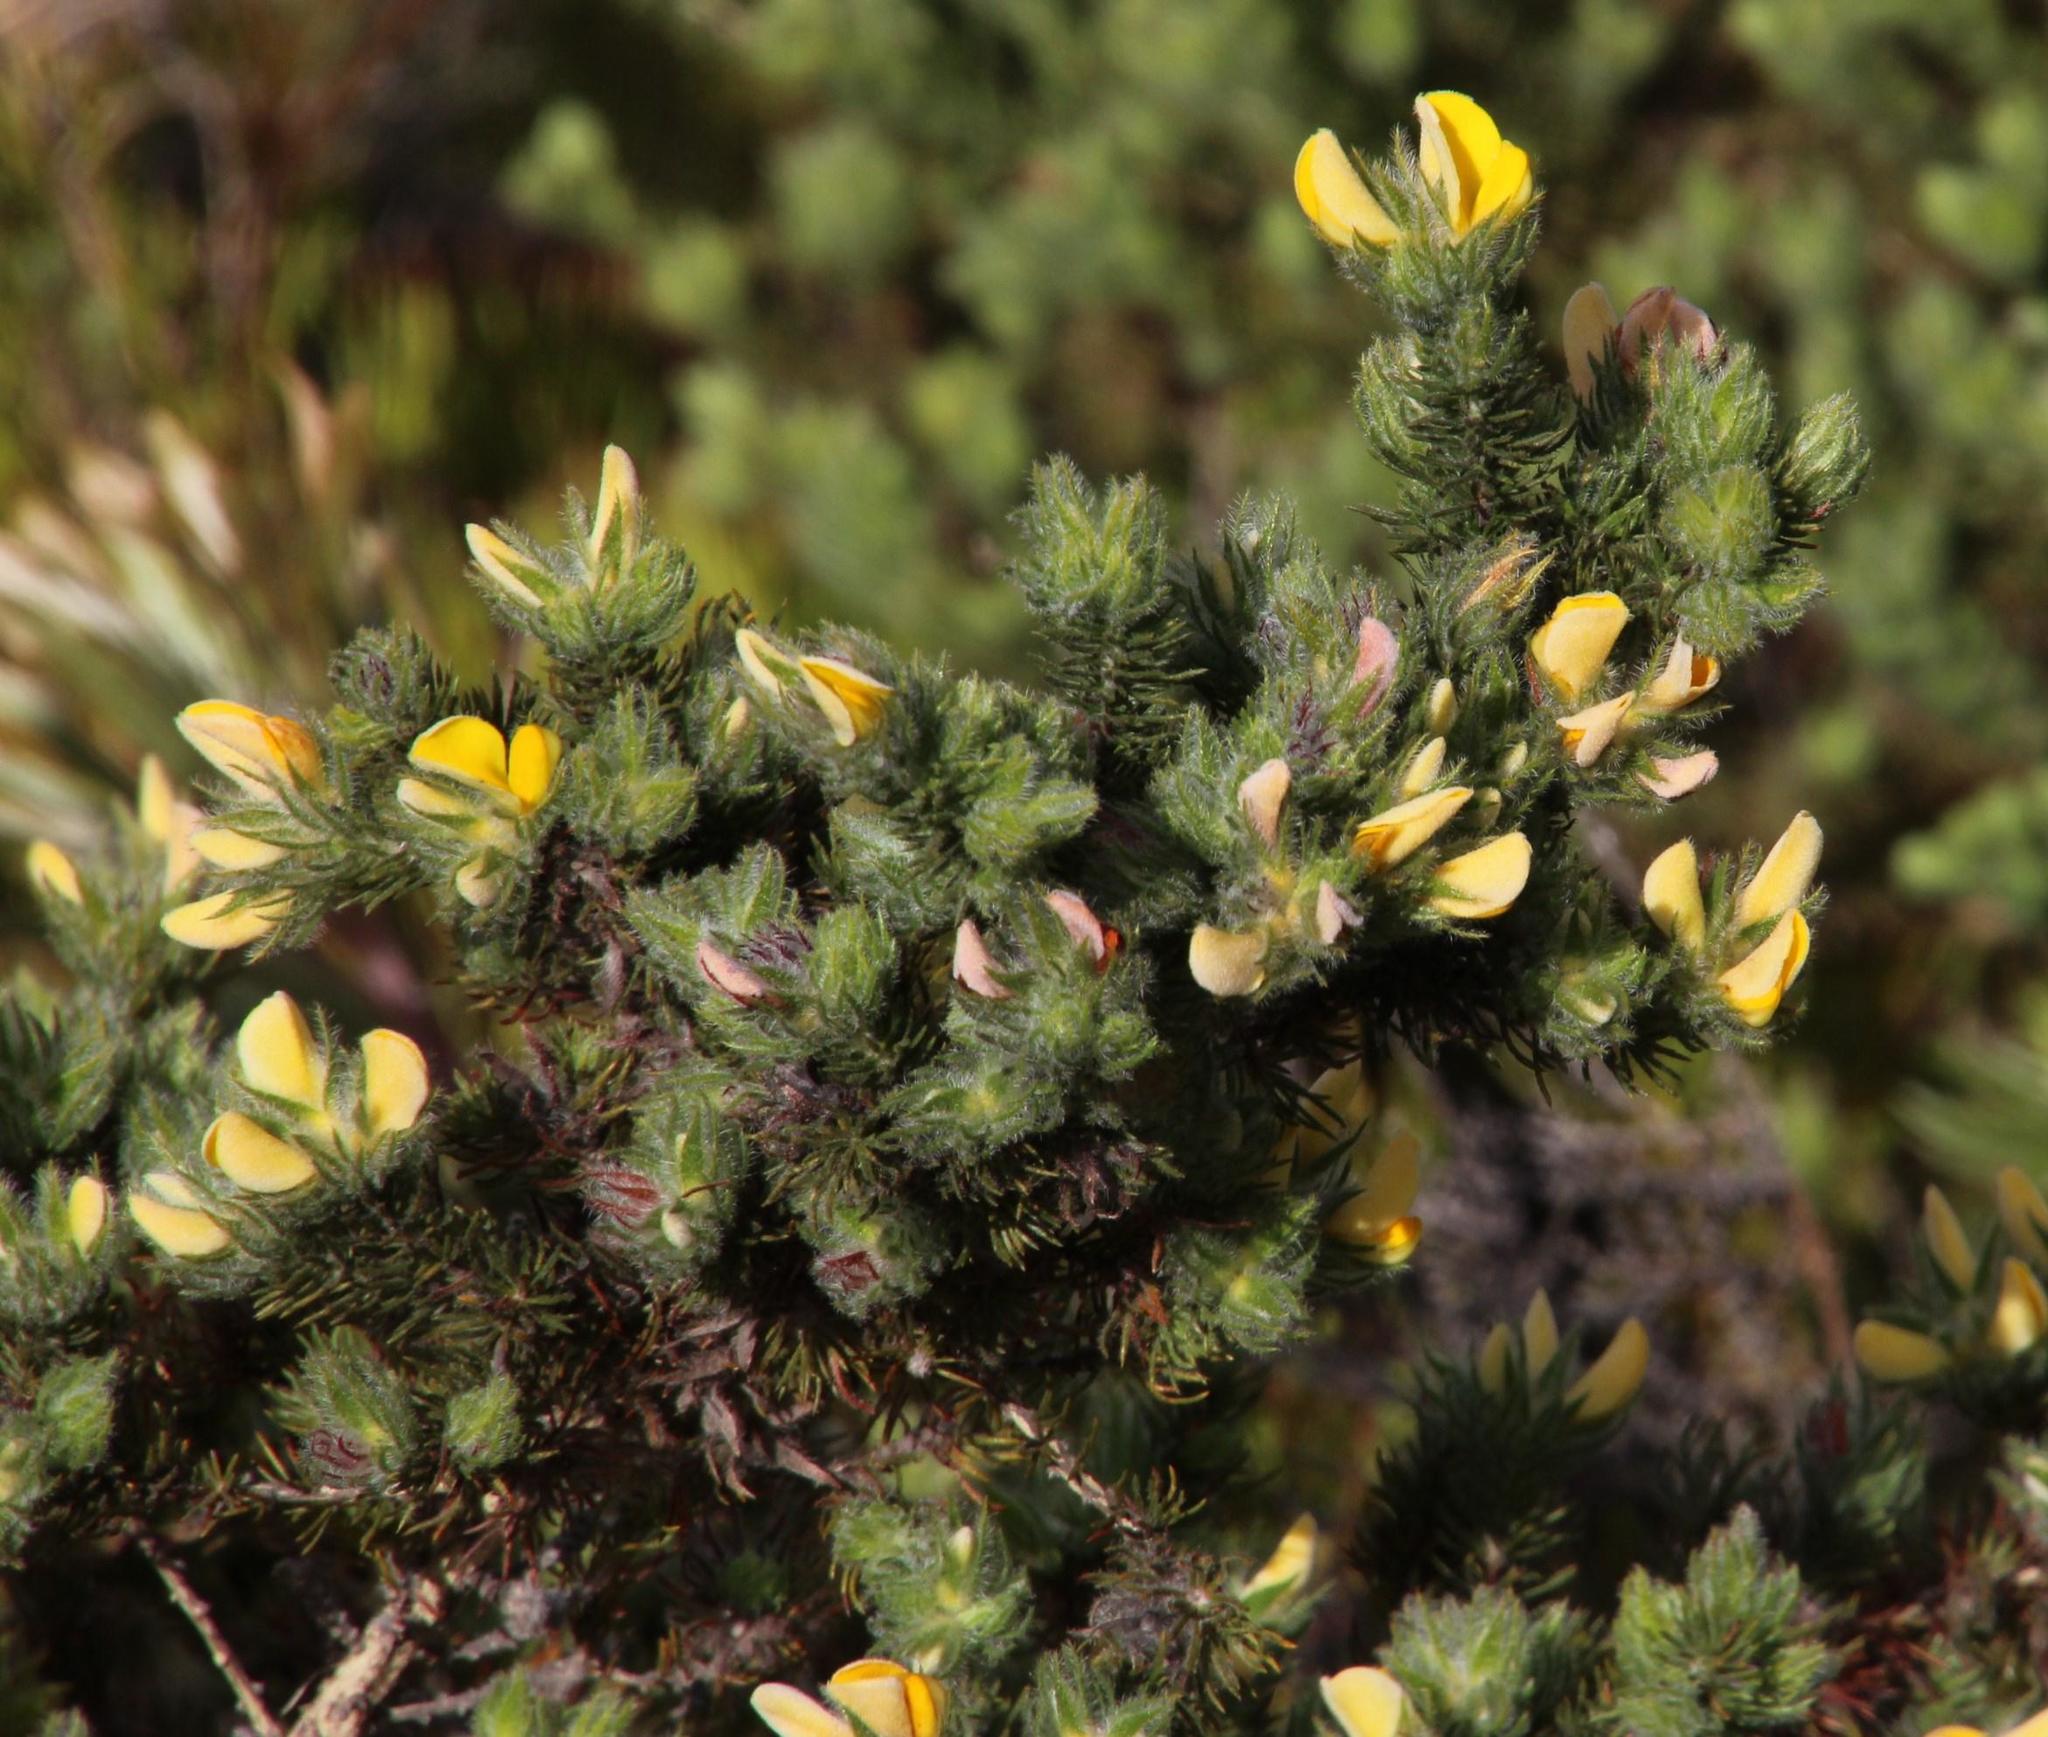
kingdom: Plantae
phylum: Tracheophyta
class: Magnoliopsida
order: Fabales
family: Fabaceae
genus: Aspalathus
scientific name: Aspalathus ciliaris
